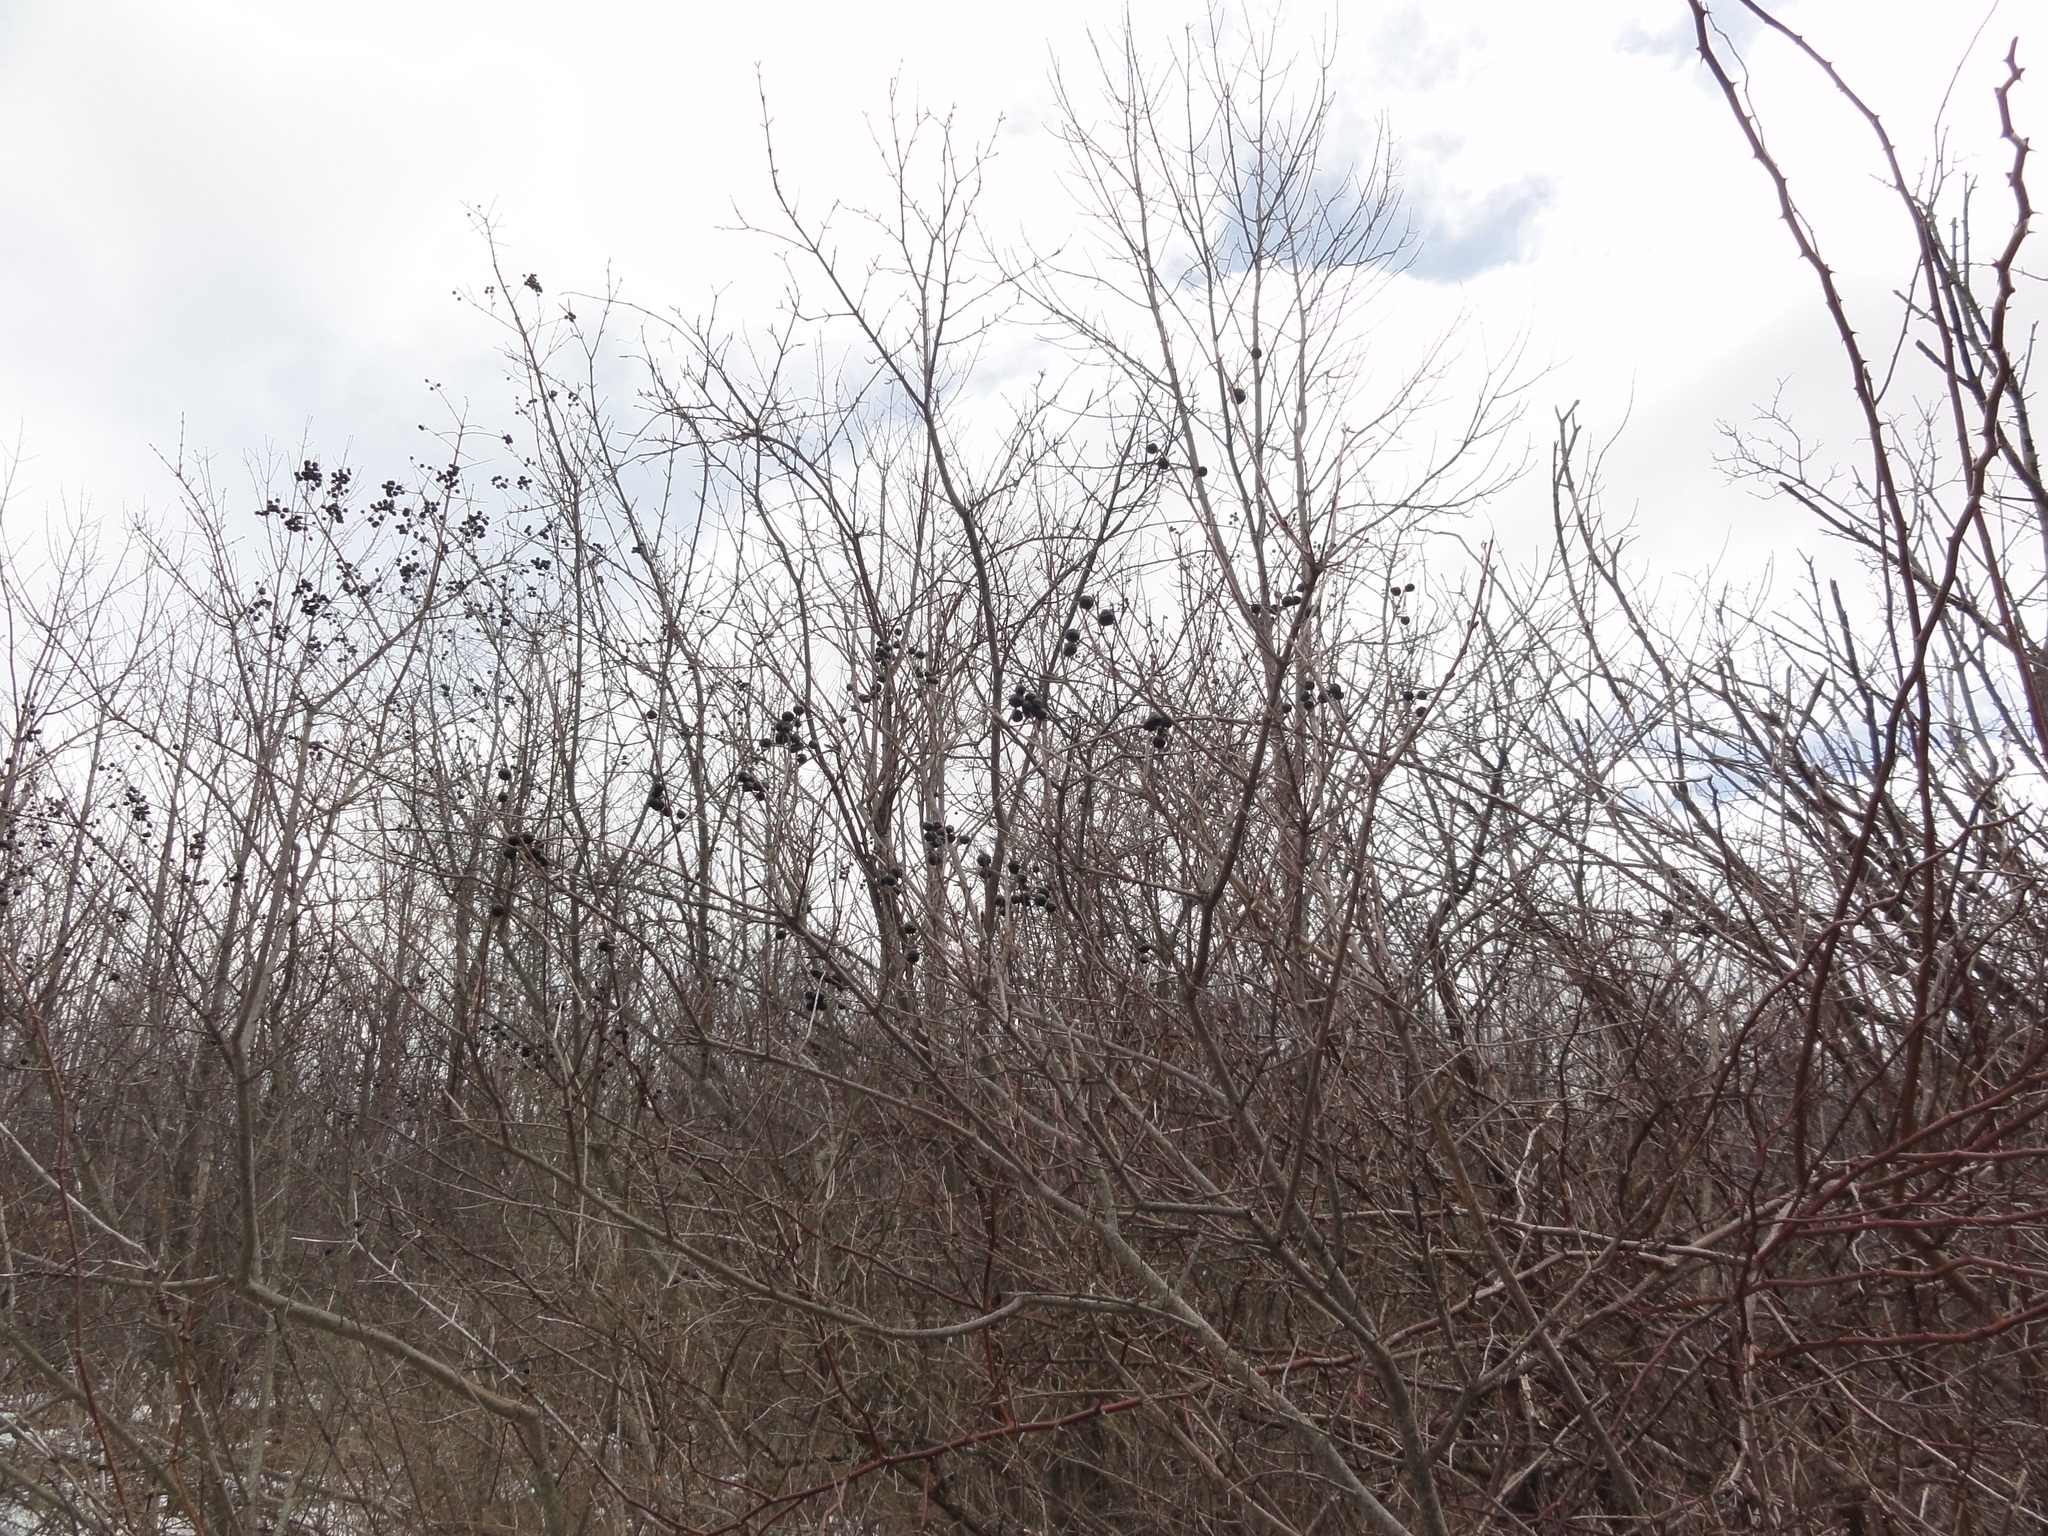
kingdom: Plantae
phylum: Tracheophyta
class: Magnoliopsida
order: Lamiales
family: Oleaceae
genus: Ligustrum
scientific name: Ligustrum
